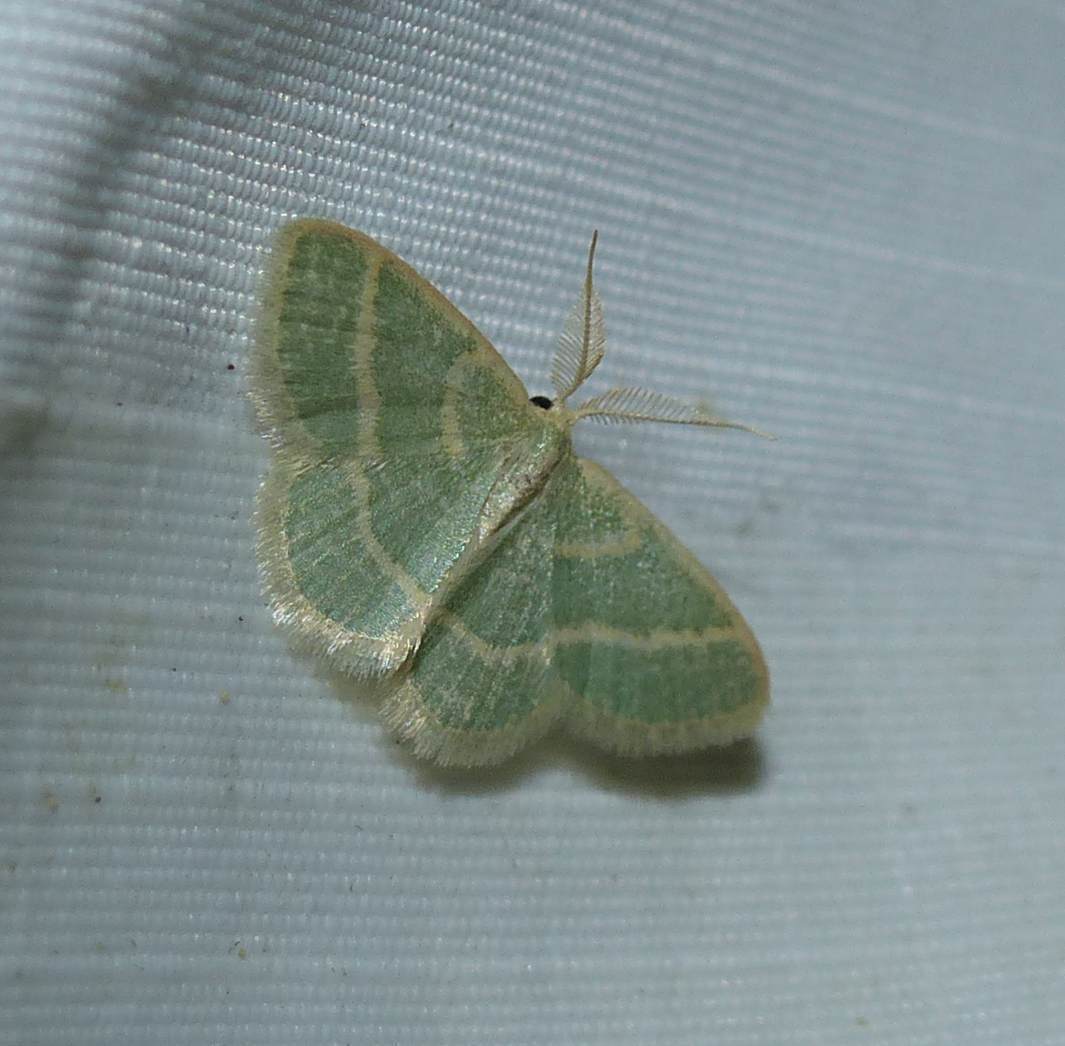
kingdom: Animalia
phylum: Arthropoda
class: Insecta
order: Lepidoptera
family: Geometridae
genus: Chlorochlamys
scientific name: Chlorochlamys chloroleucaria
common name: Blackberry looper
